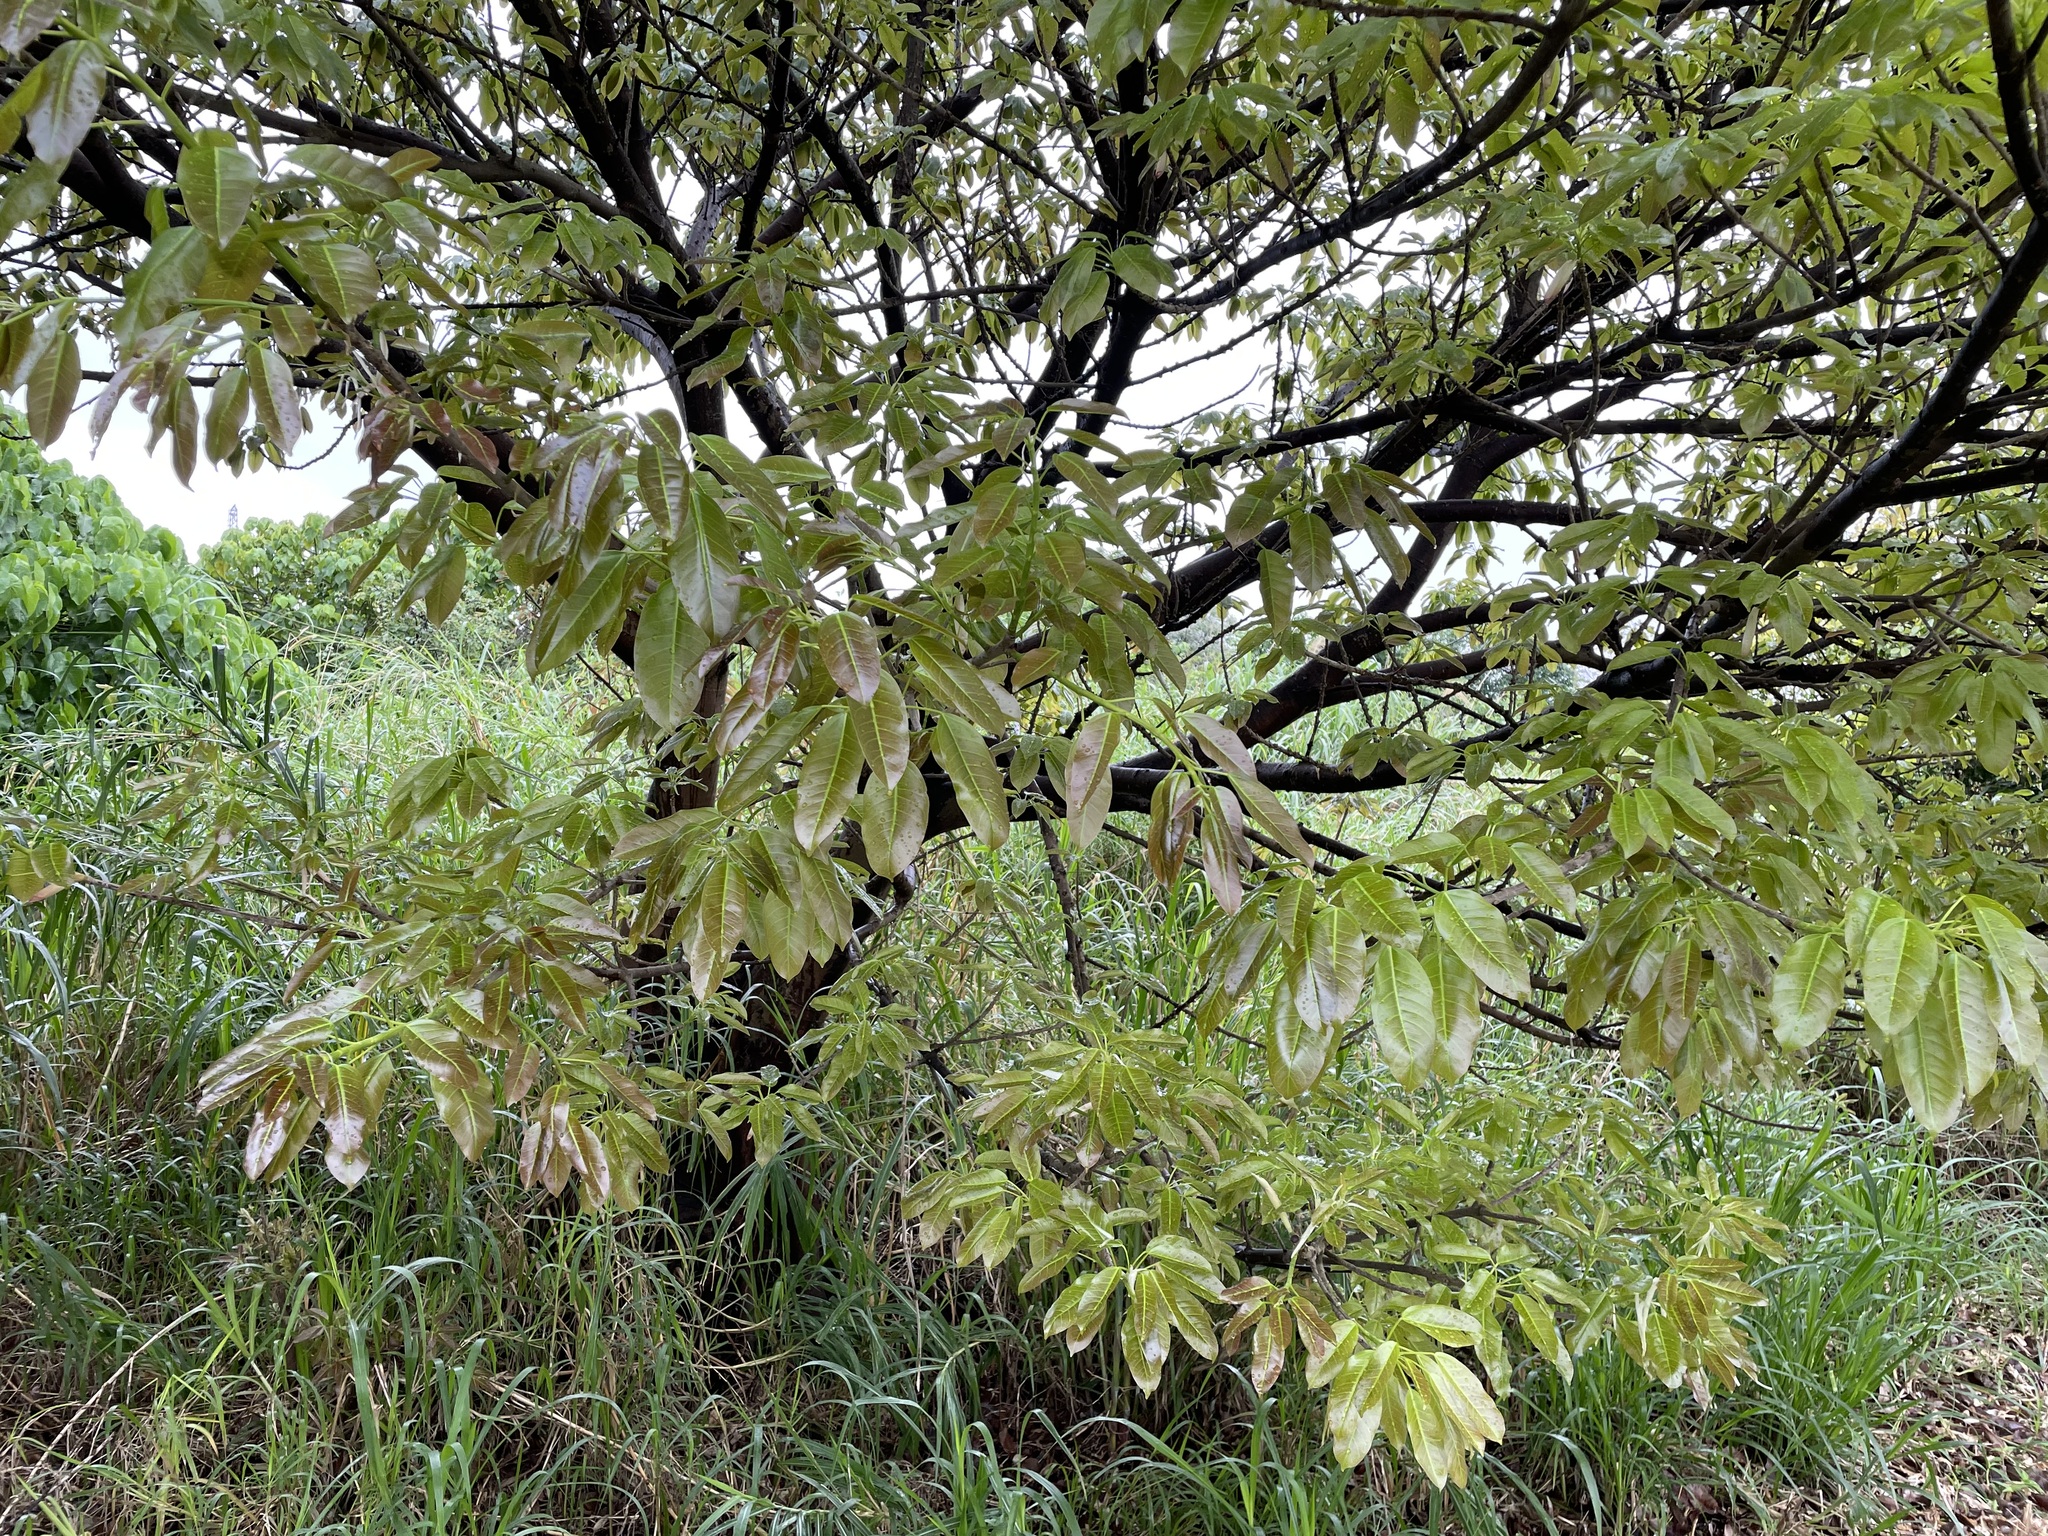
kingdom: Plantae
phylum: Tracheophyta
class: Magnoliopsida
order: Rosales
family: Moraceae
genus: Ficus
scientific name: Ficus subpisocarpa
